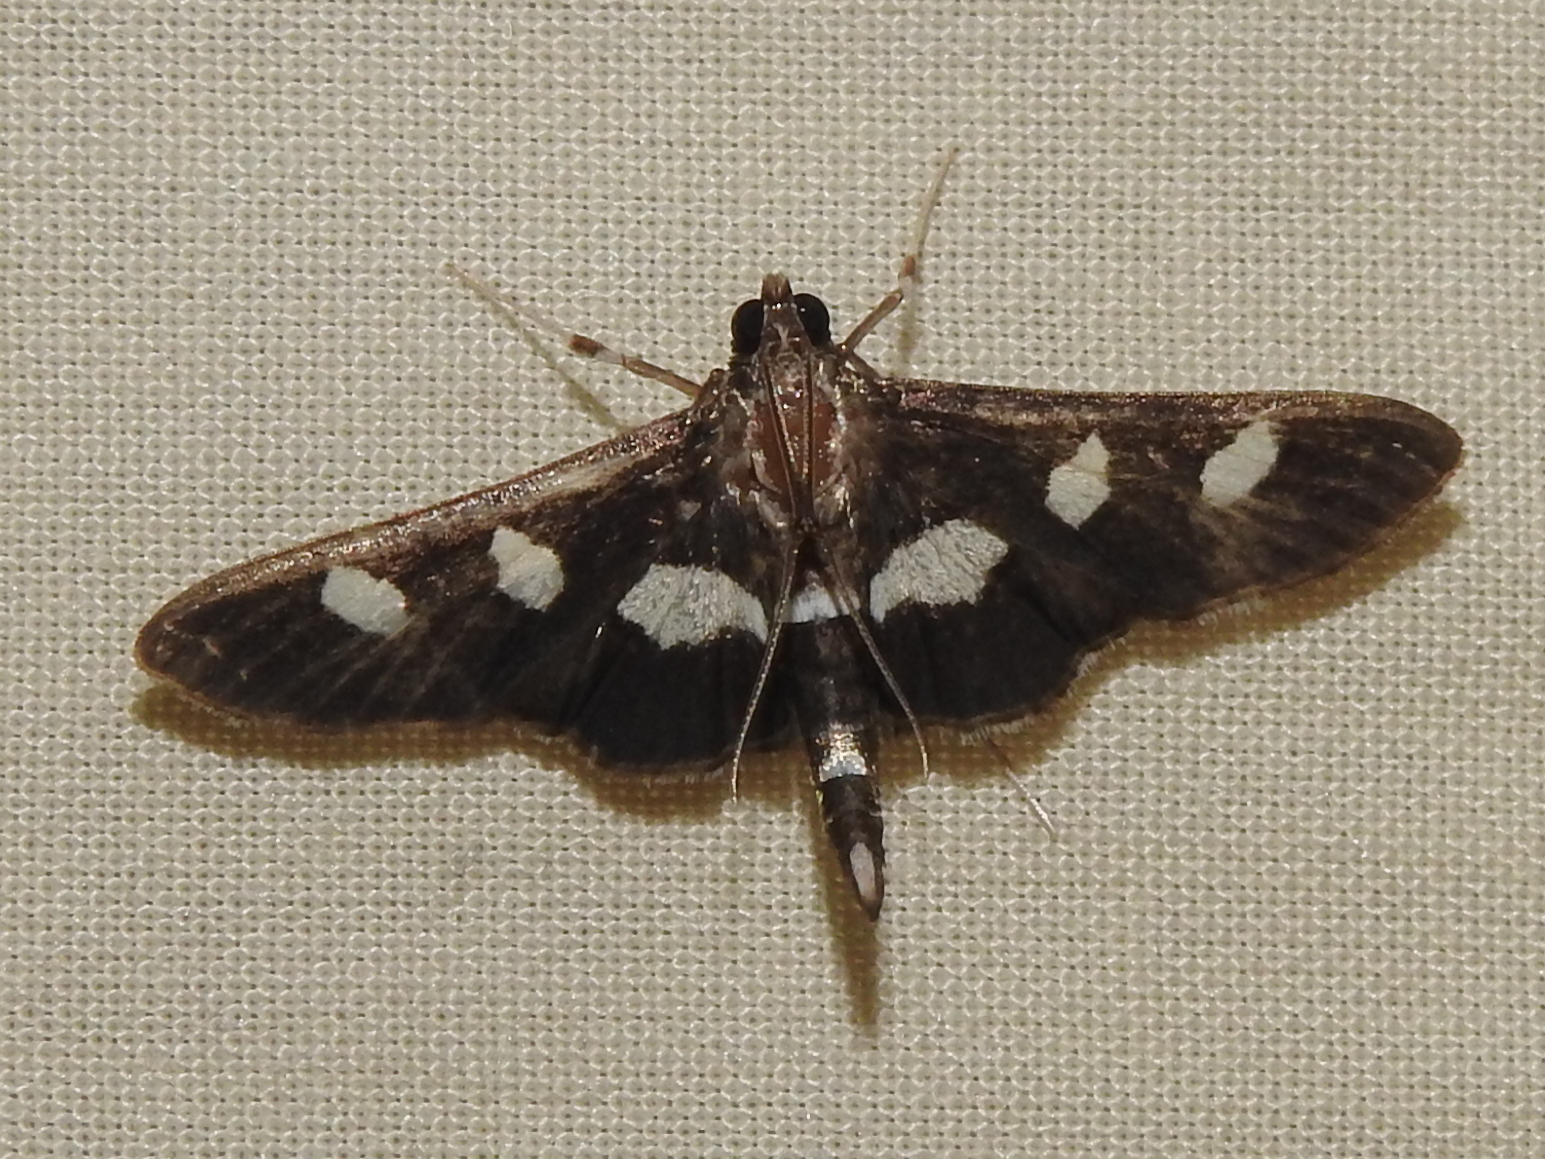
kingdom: Animalia
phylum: Arthropoda
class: Insecta
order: Lepidoptera
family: Crambidae
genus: Desmia
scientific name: Desmia
